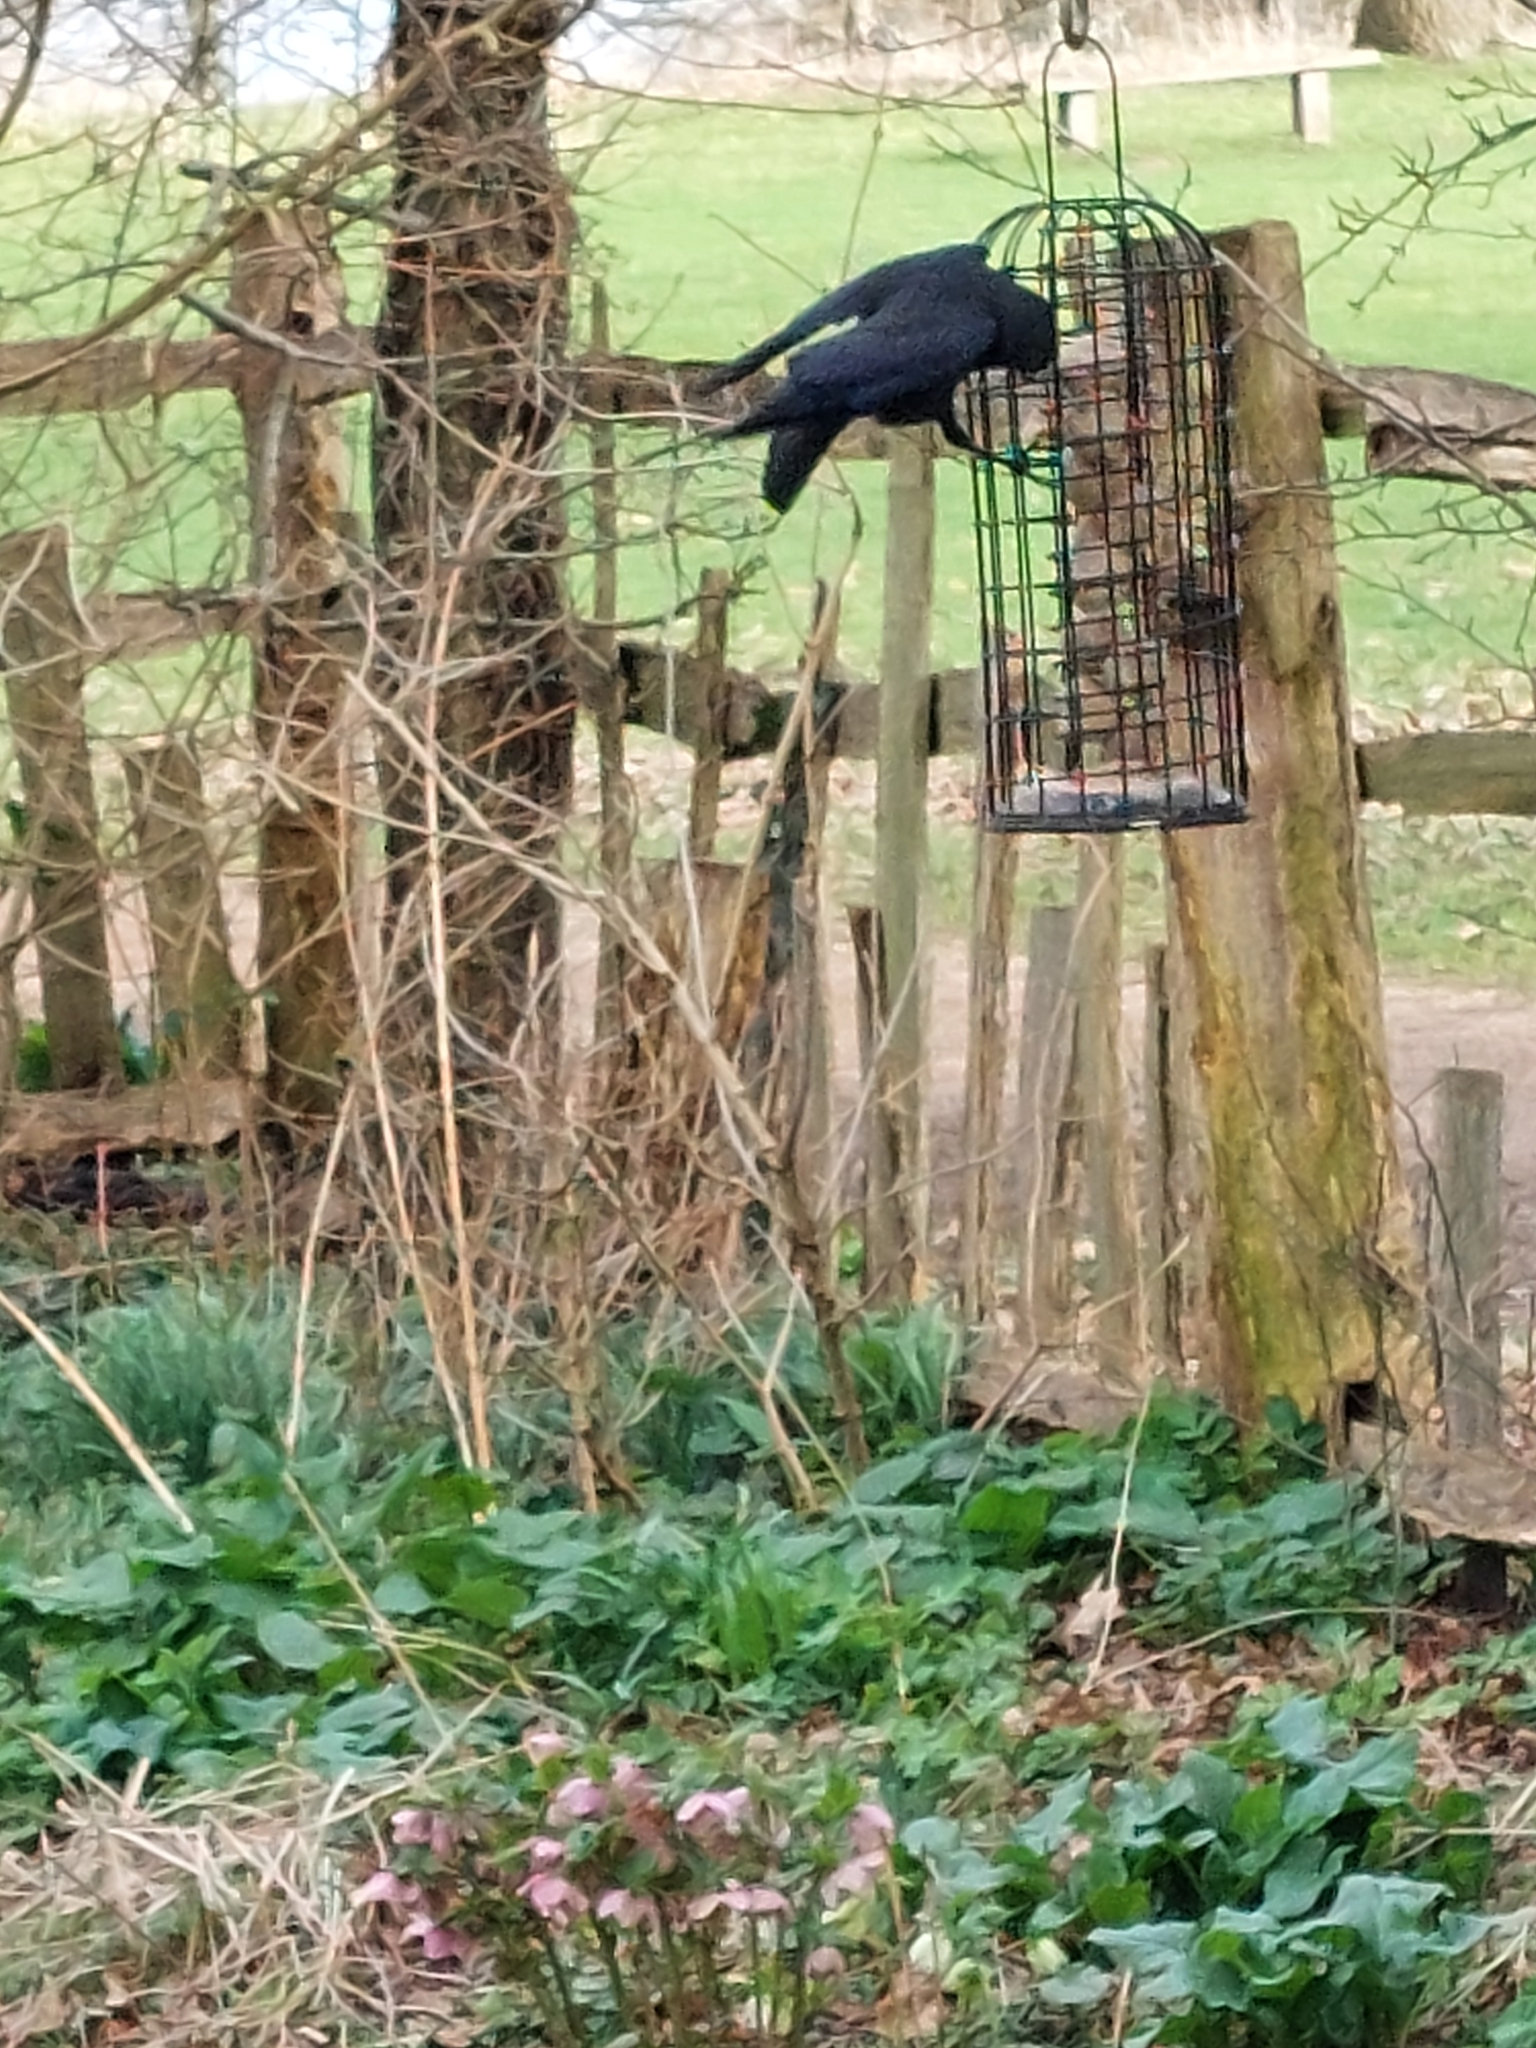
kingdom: Animalia
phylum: Chordata
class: Aves
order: Passeriformes
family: Corvidae
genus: Corvus
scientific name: Corvus corone
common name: Carrion crow
